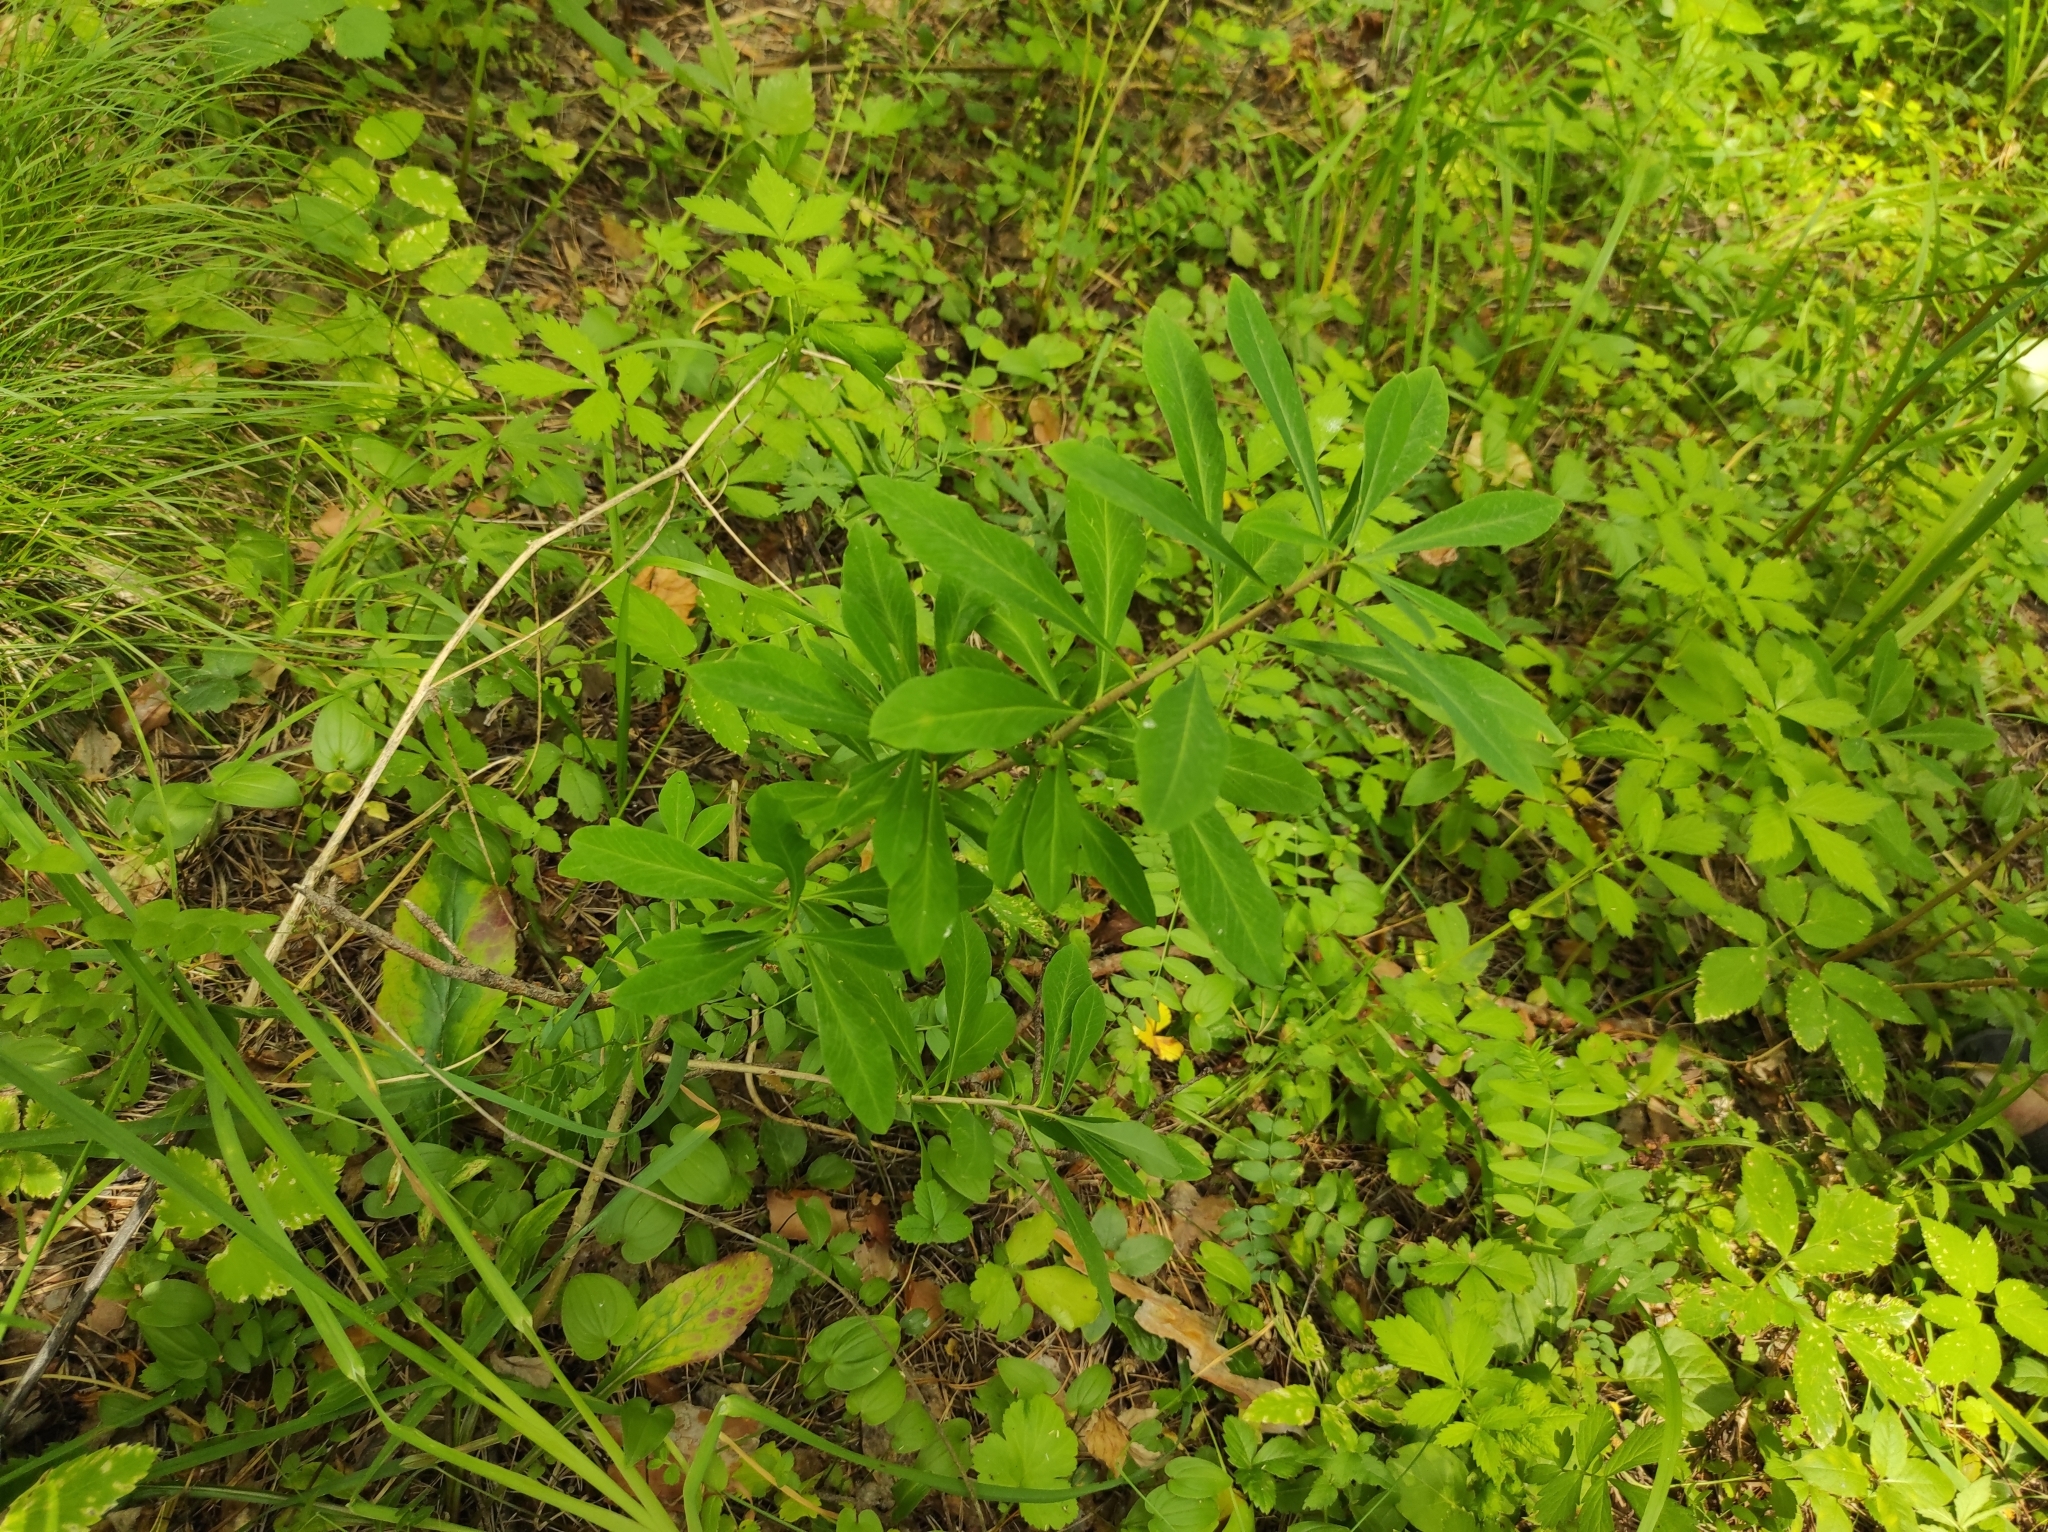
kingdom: Plantae
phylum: Tracheophyta
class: Magnoliopsida
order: Malvales
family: Thymelaeaceae
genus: Daphne
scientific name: Daphne mezereum
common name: Mezereon
